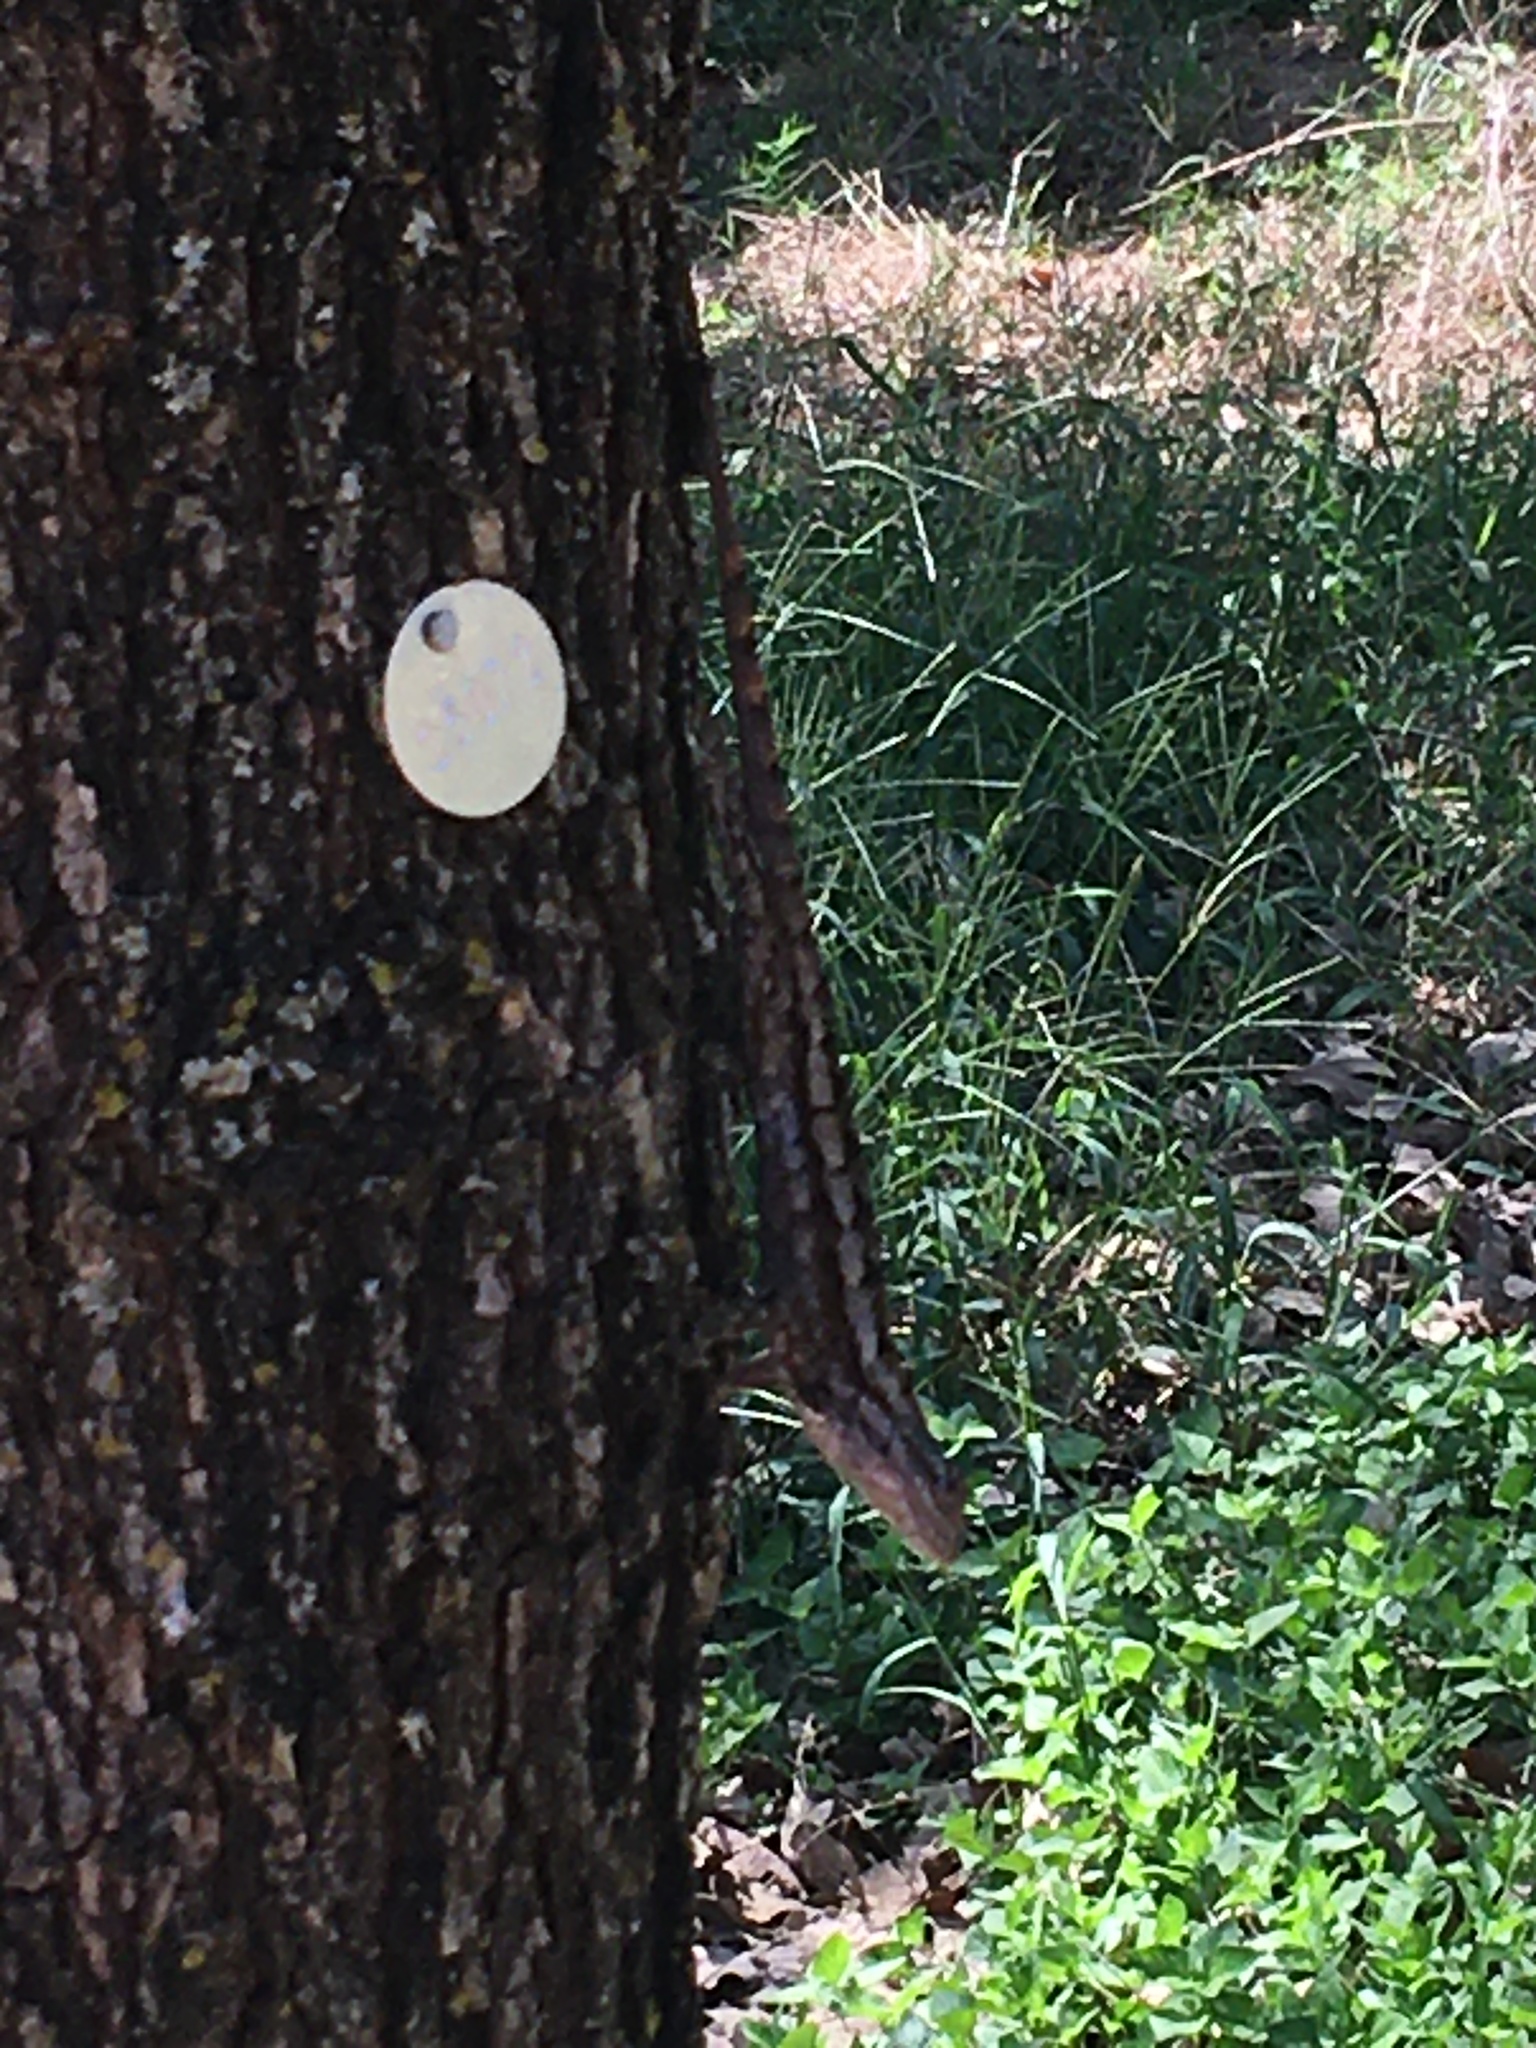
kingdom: Animalia
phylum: Chordata
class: Squamata
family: Phrynosomatidae
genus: Sceloporus
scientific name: Sceloporus olivaceus
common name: Texas spiny lizard
